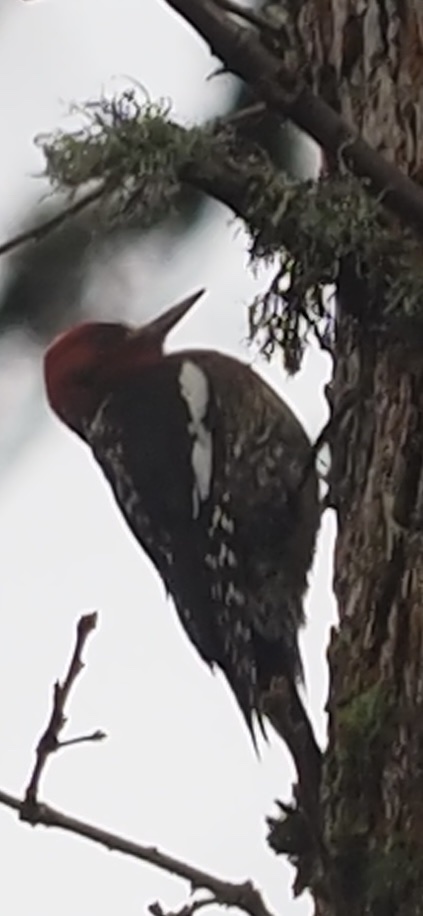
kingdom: Animalia
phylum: Chordata
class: Aves
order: Piciformes
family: Picidae
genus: Sphyrapicus
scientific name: Sphyrapicus ruber
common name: Red-breasted sapsucker
